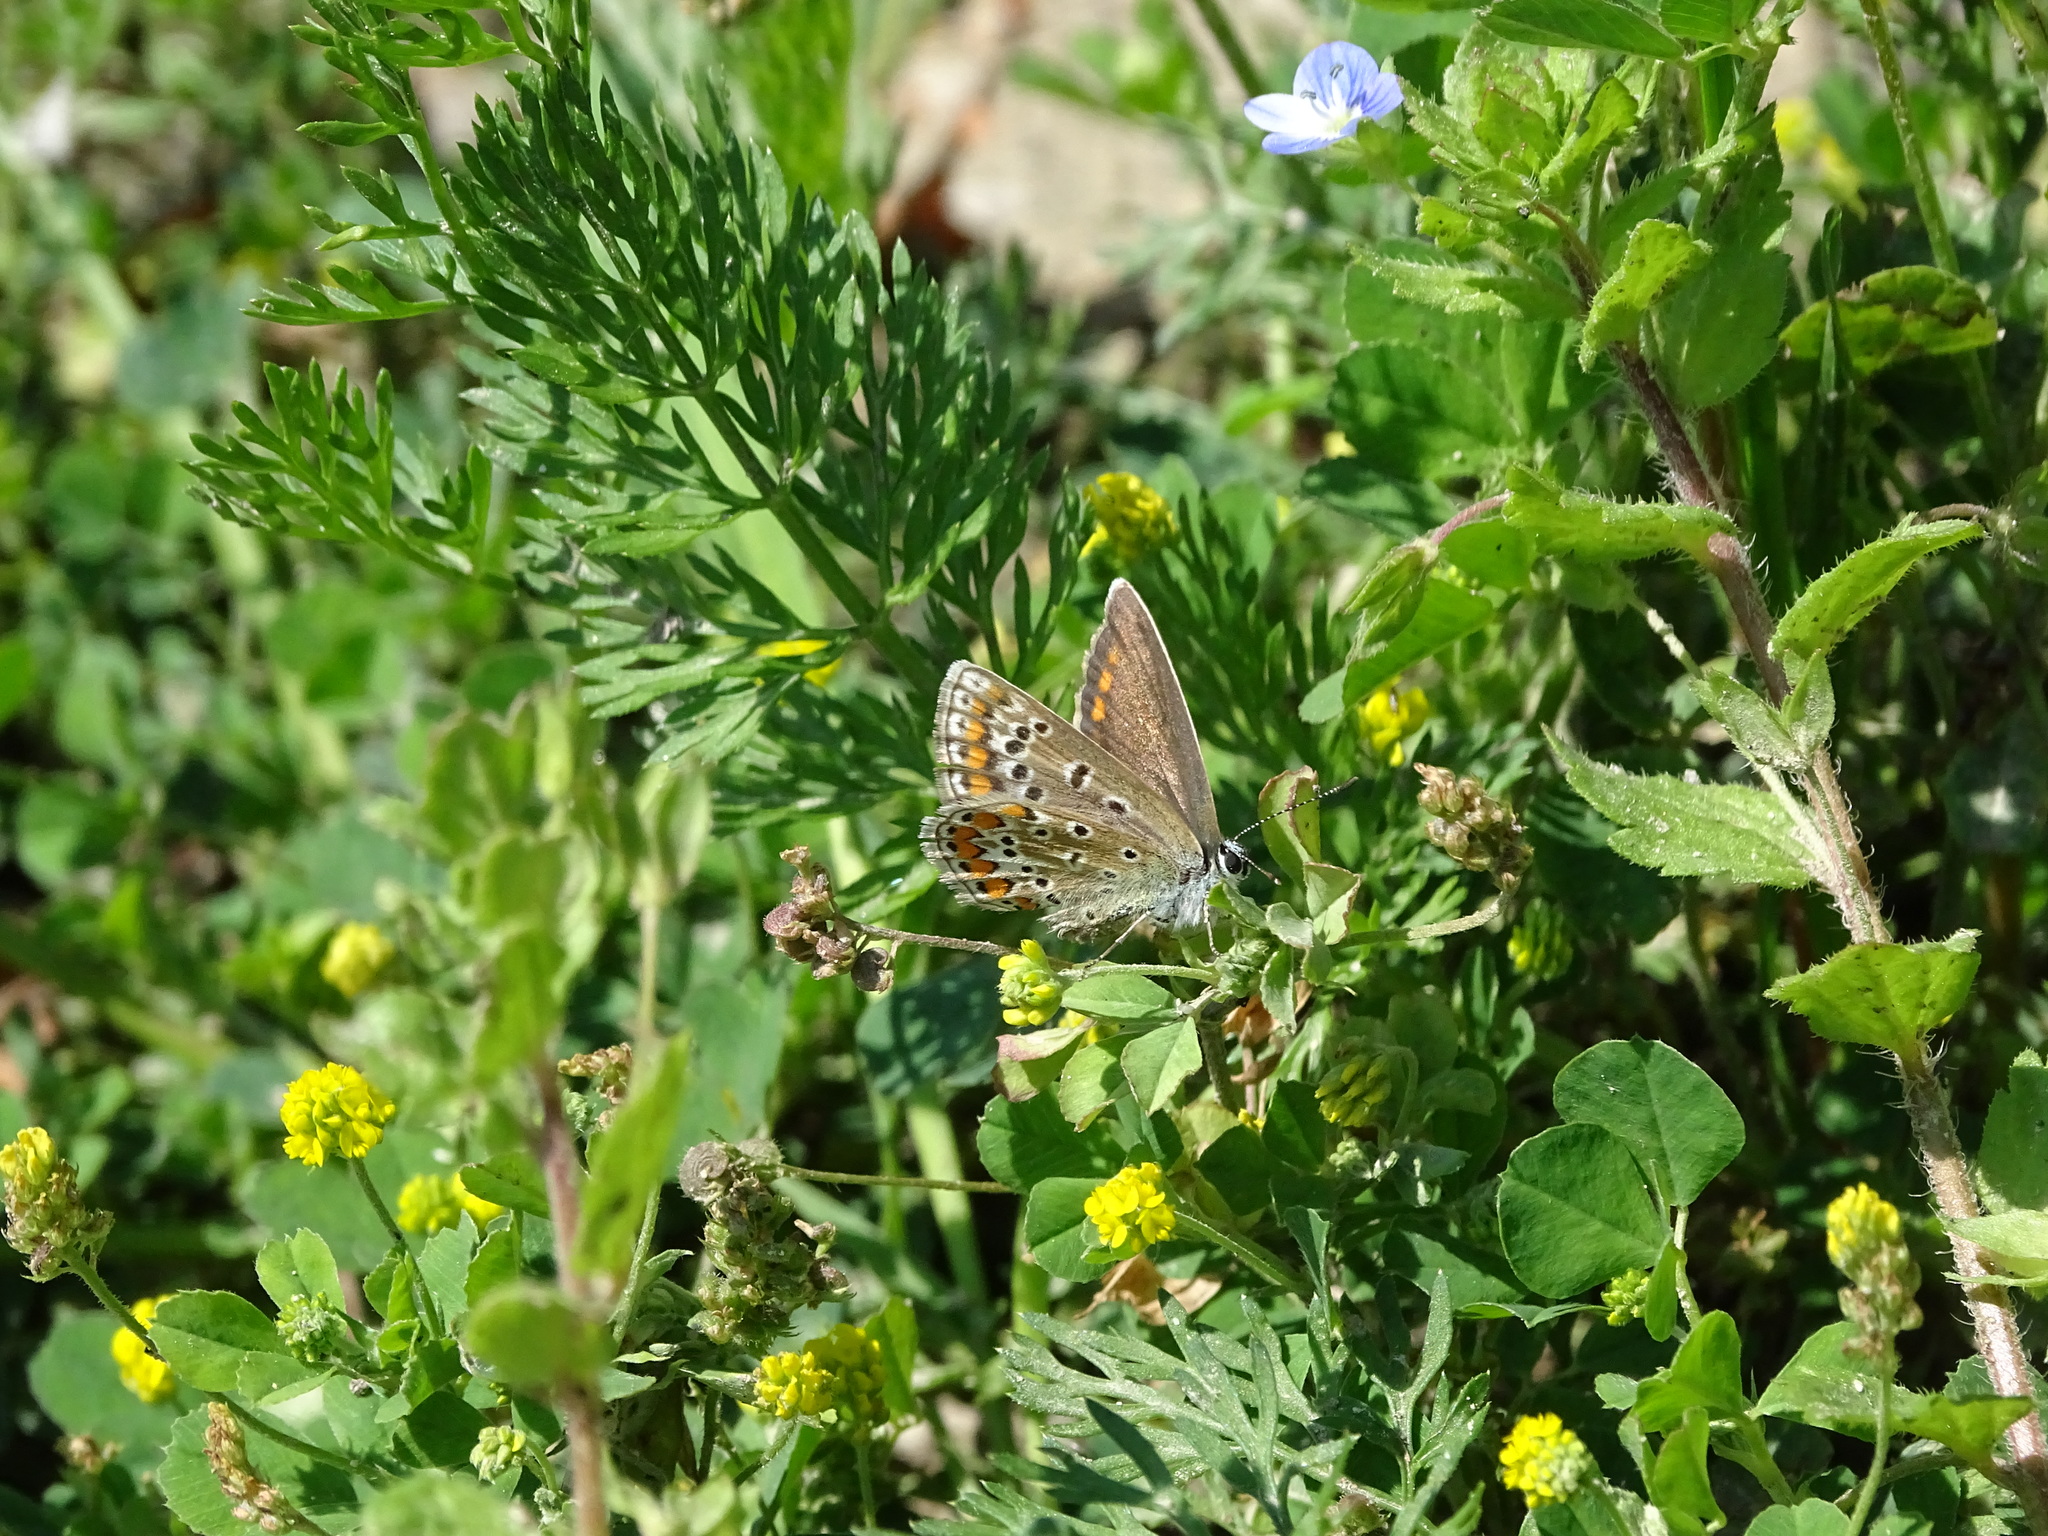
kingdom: Animalia
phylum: Arthropoda
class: Insecta
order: Lepidoptera
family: Lycaenidae
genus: Polyommatus
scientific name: Polyommatus icarus
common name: Common blue
